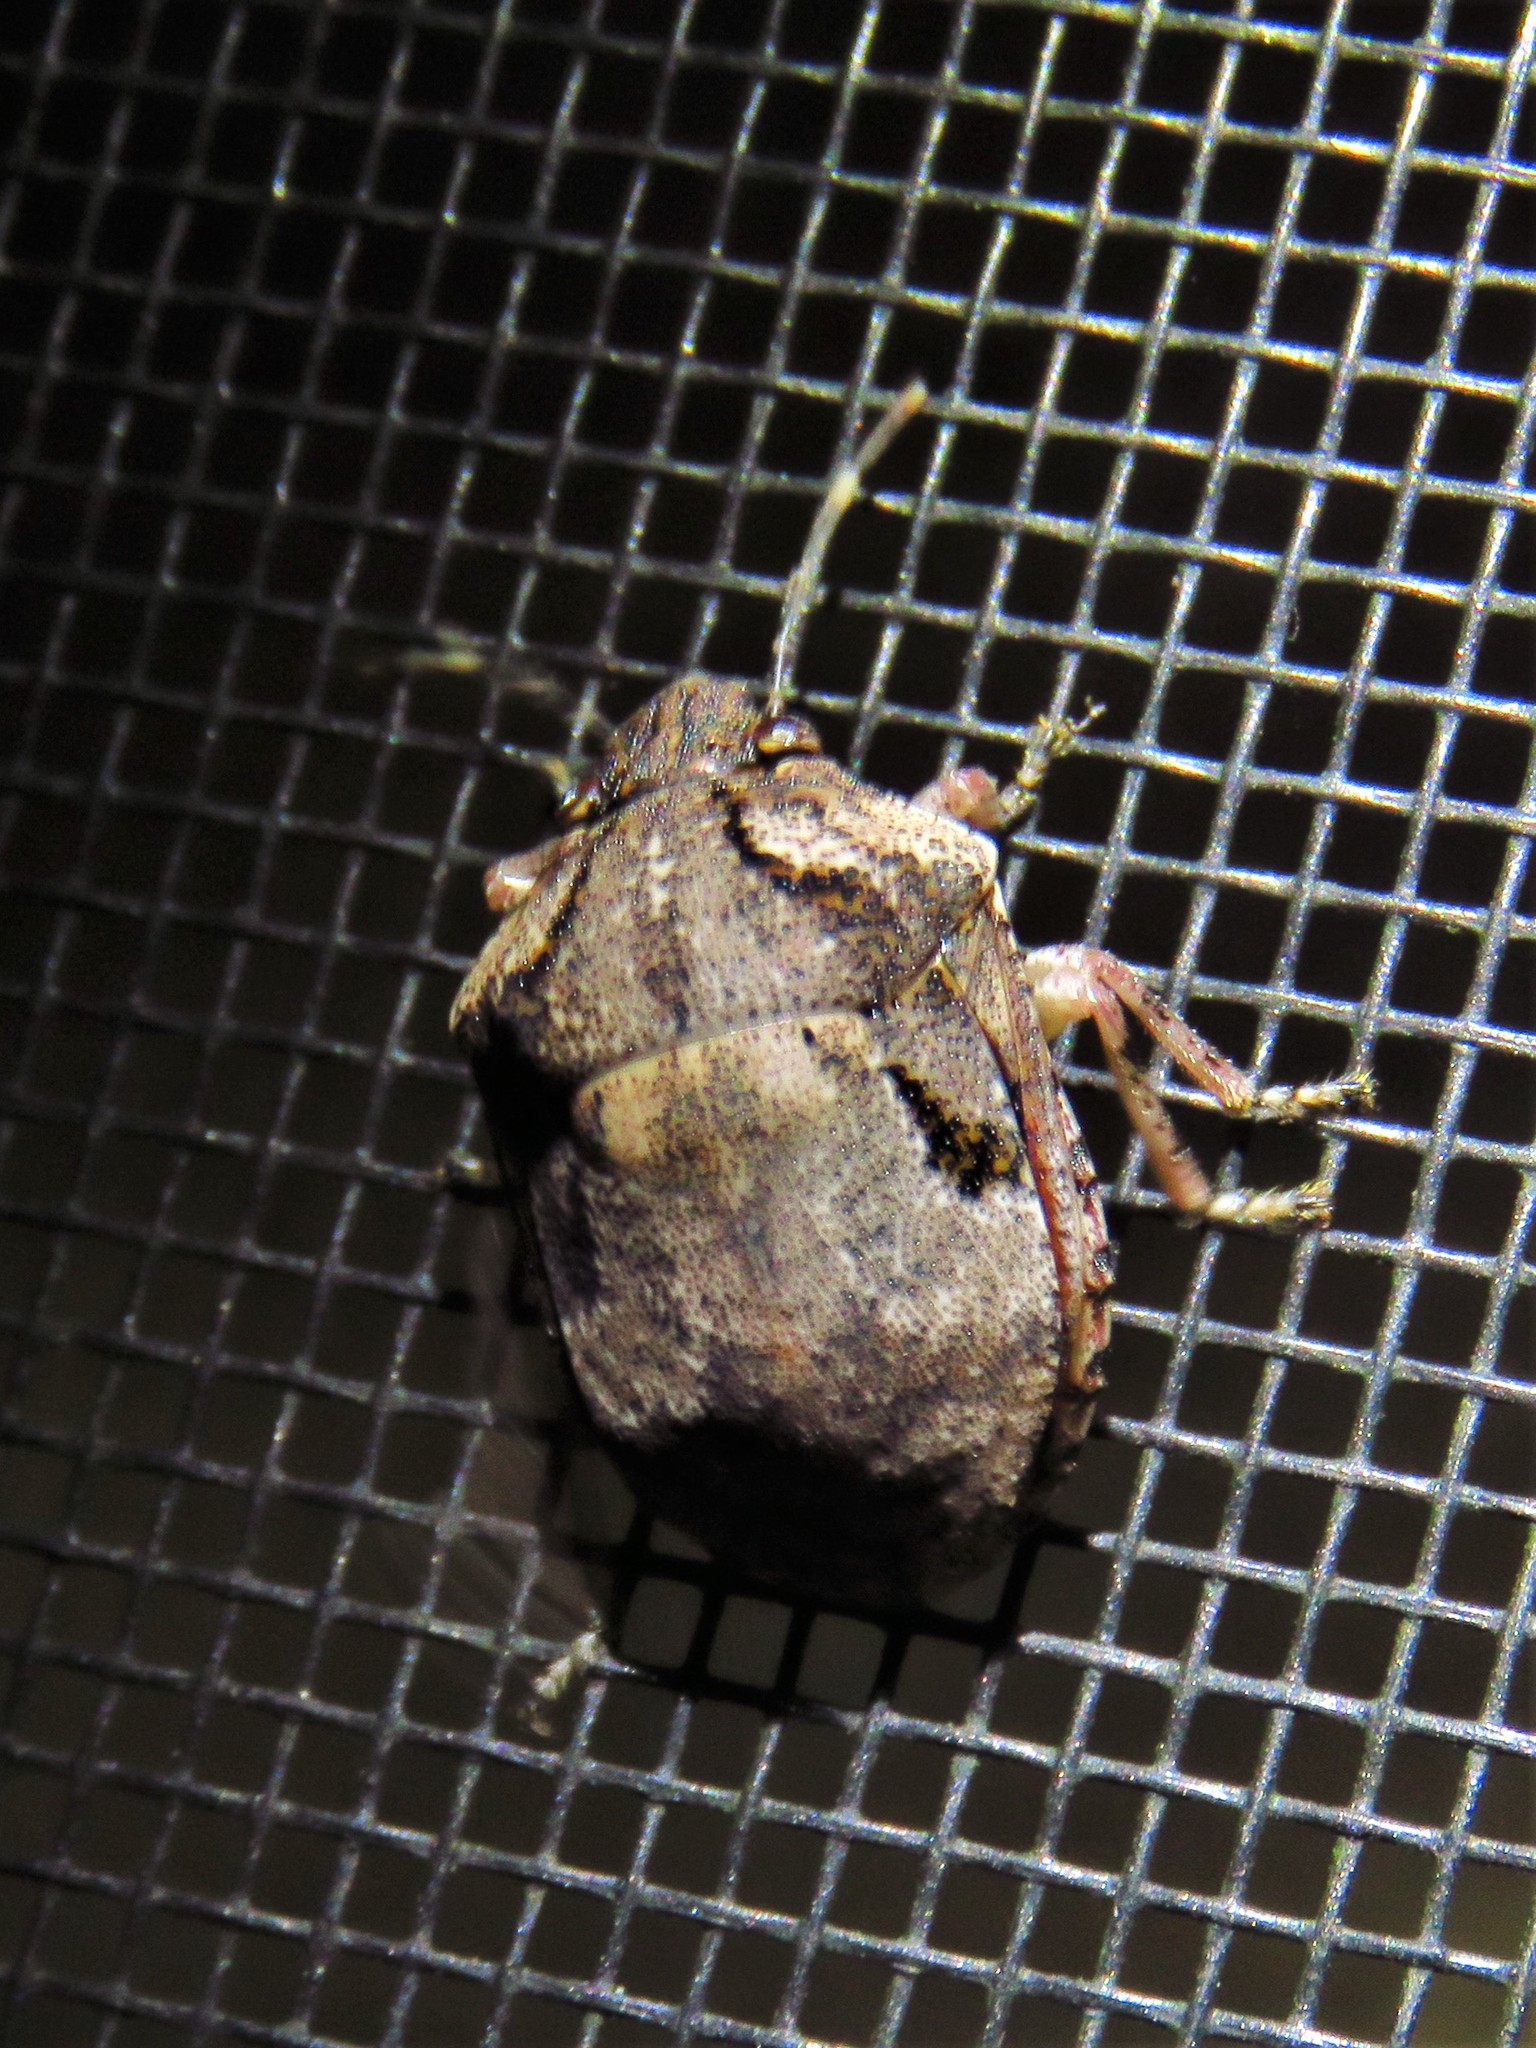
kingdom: Animalia
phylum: Arthropoda
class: Insecta
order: Hemiptera
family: Scutelleridae
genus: Tetyra
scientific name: Tetyra antillarum
